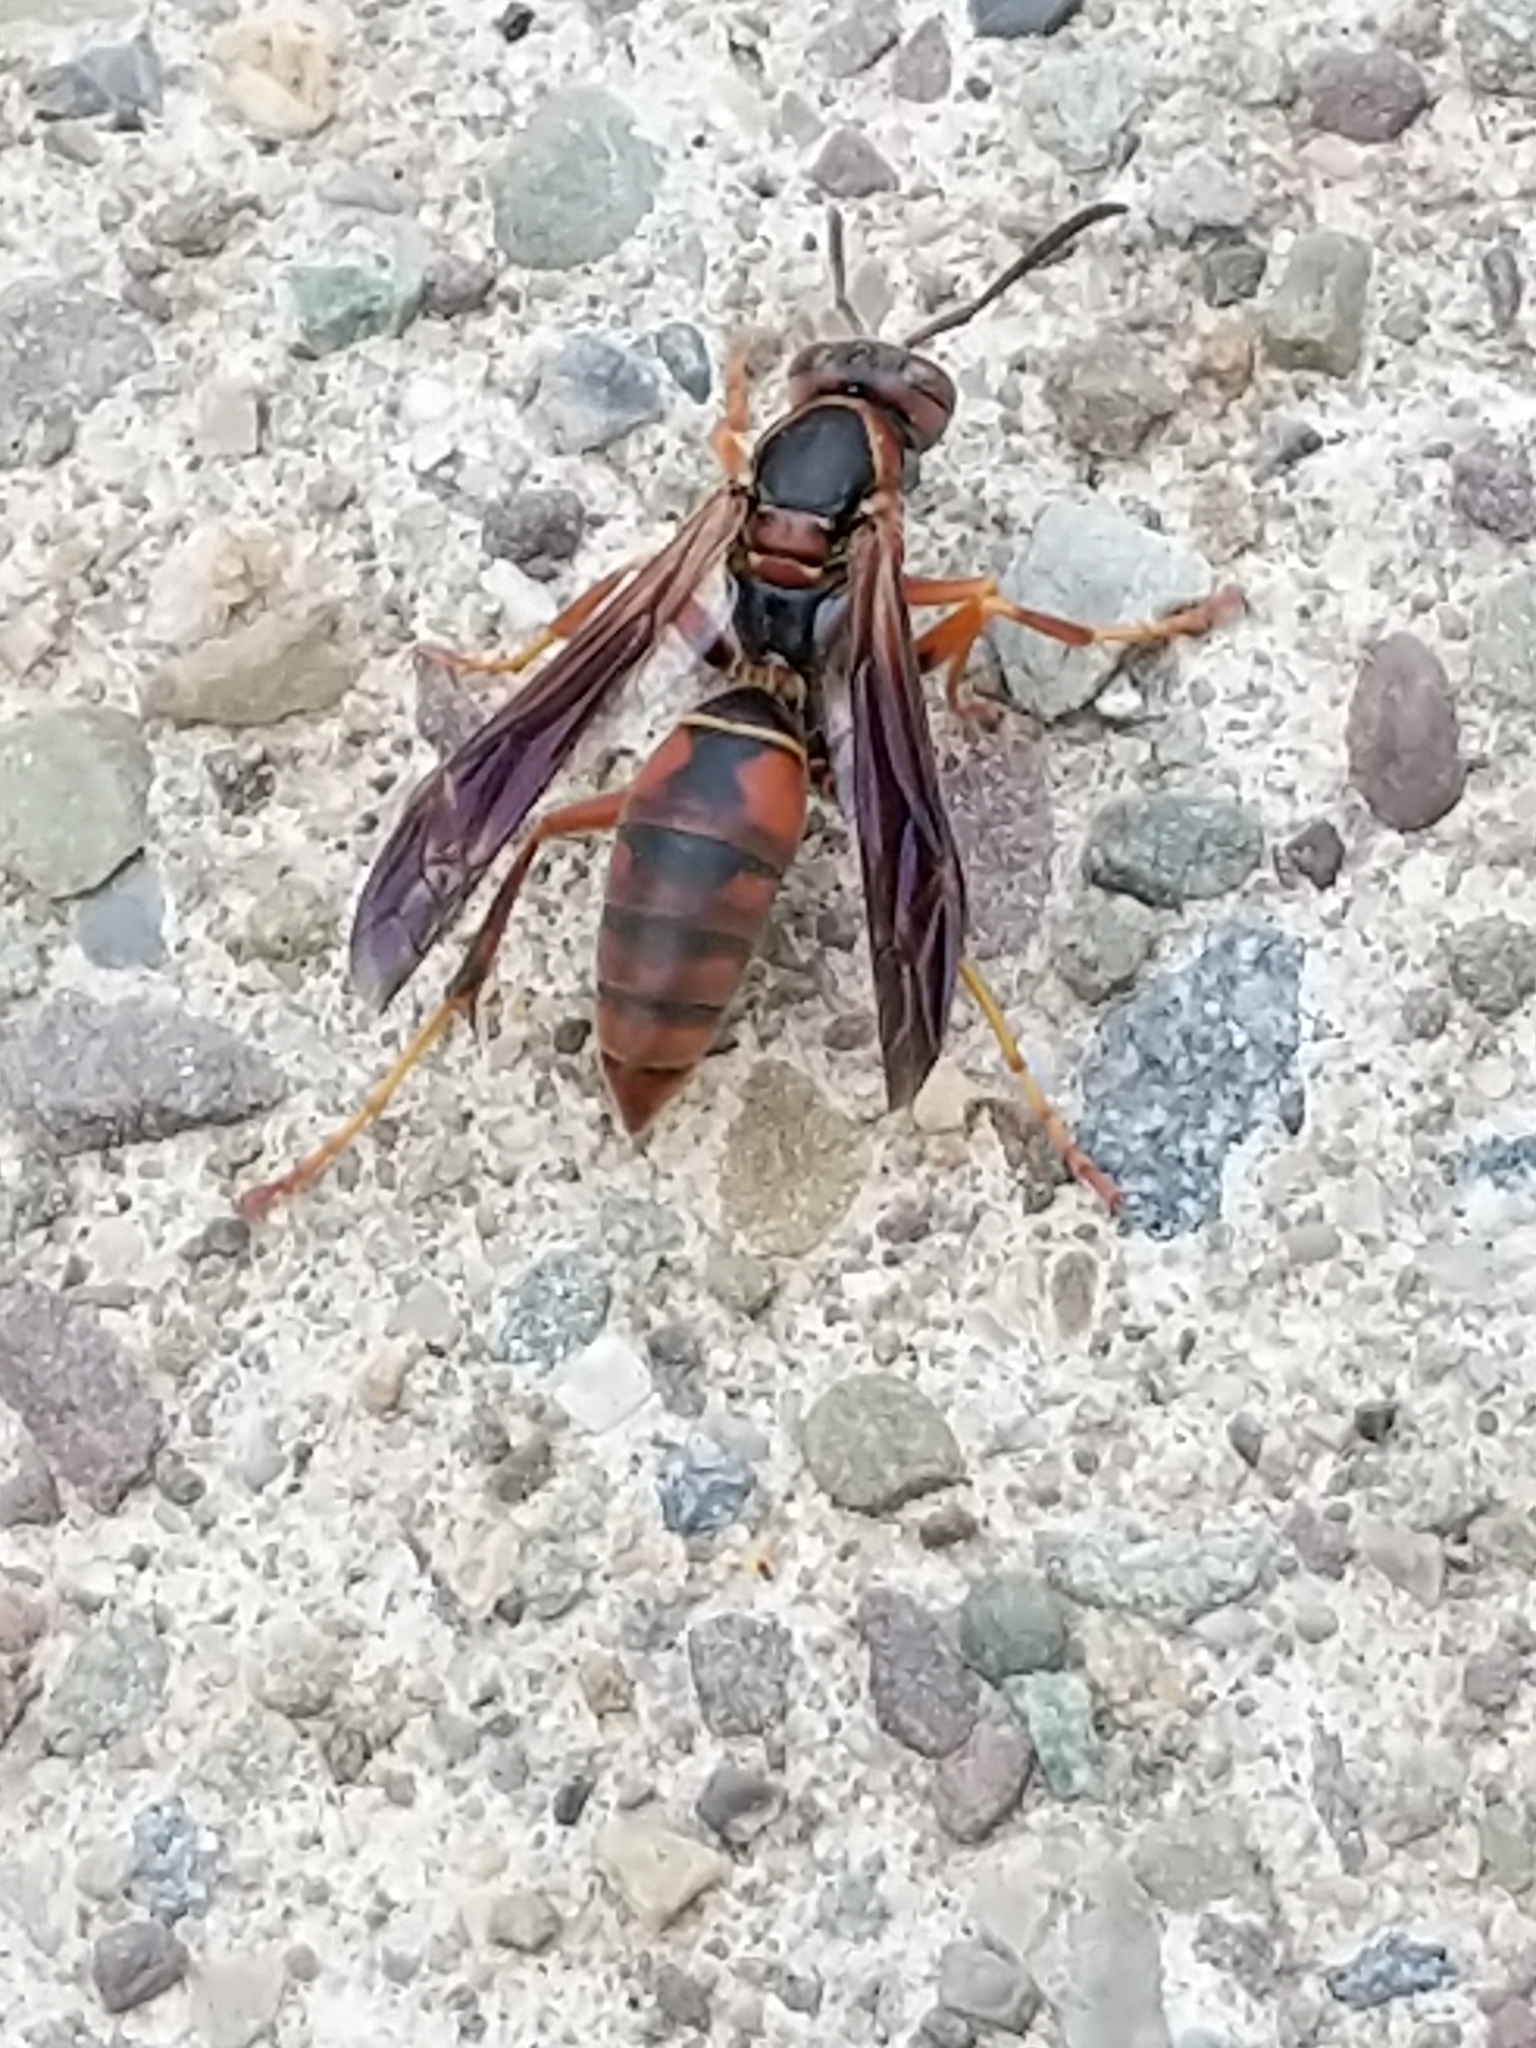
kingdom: Animalia
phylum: Arthropoda
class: Insecta
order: Hymenoptera
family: Eumenidae
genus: Polistes
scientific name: Polistes fuscatus
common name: Dark paper wasp
